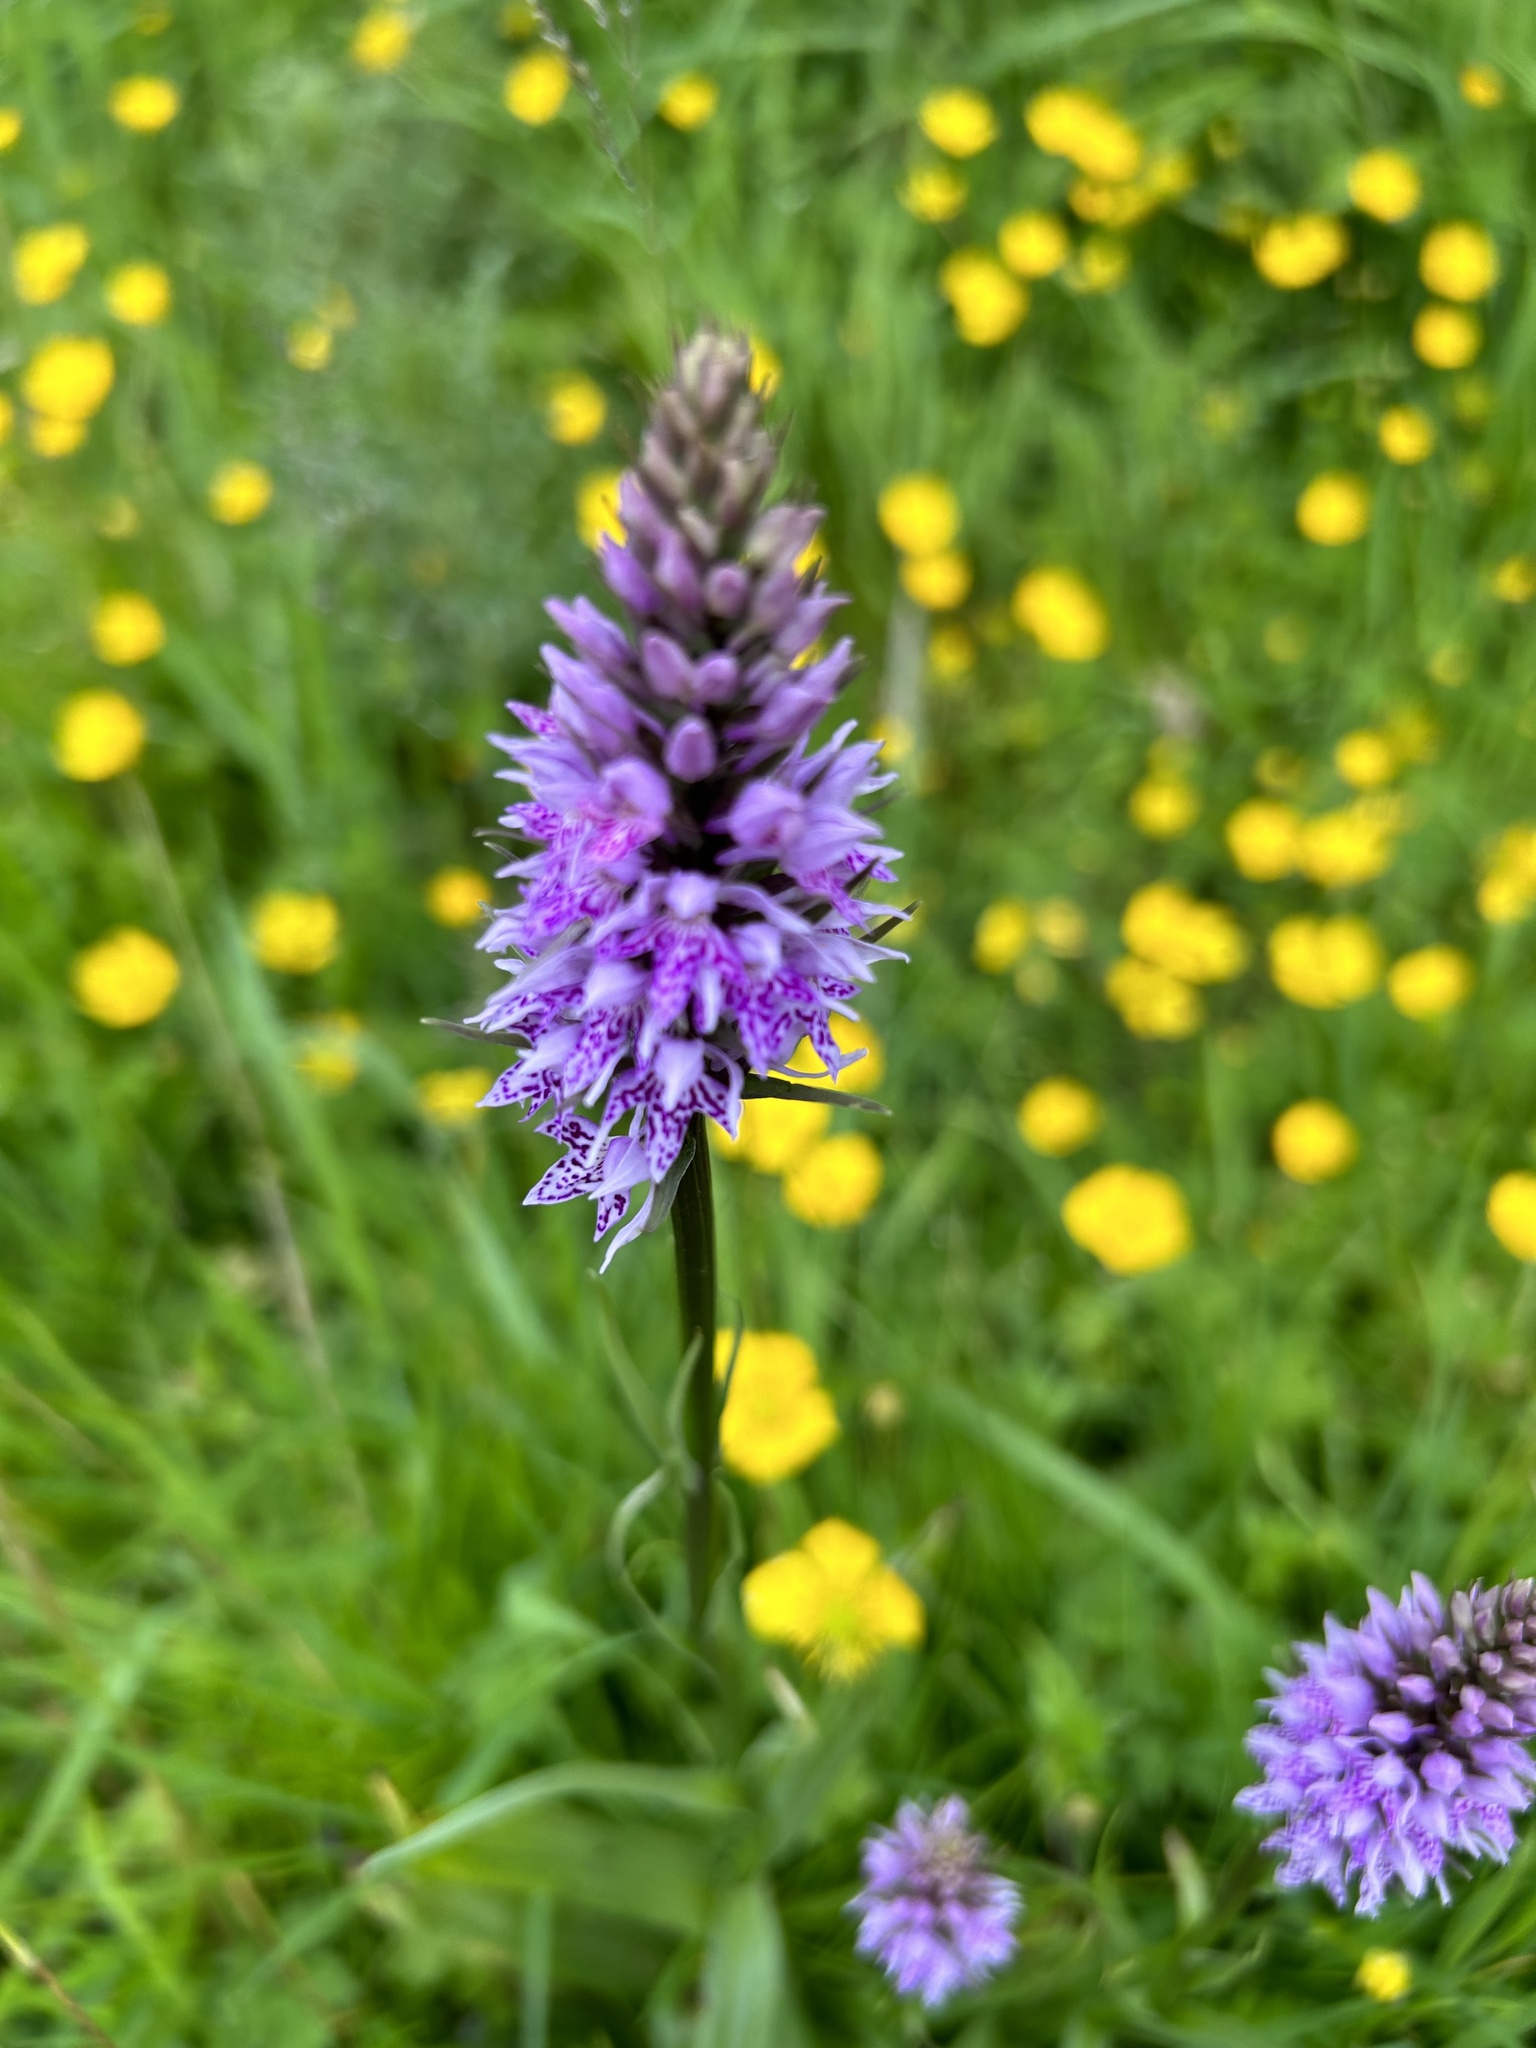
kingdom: Plantae
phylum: Tracheophyta
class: Liliopsida
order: Asparagales
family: Orchidaceae
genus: Dactylorhiza
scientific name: Dactylorhiza maculata
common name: Heath spotted-orchid
